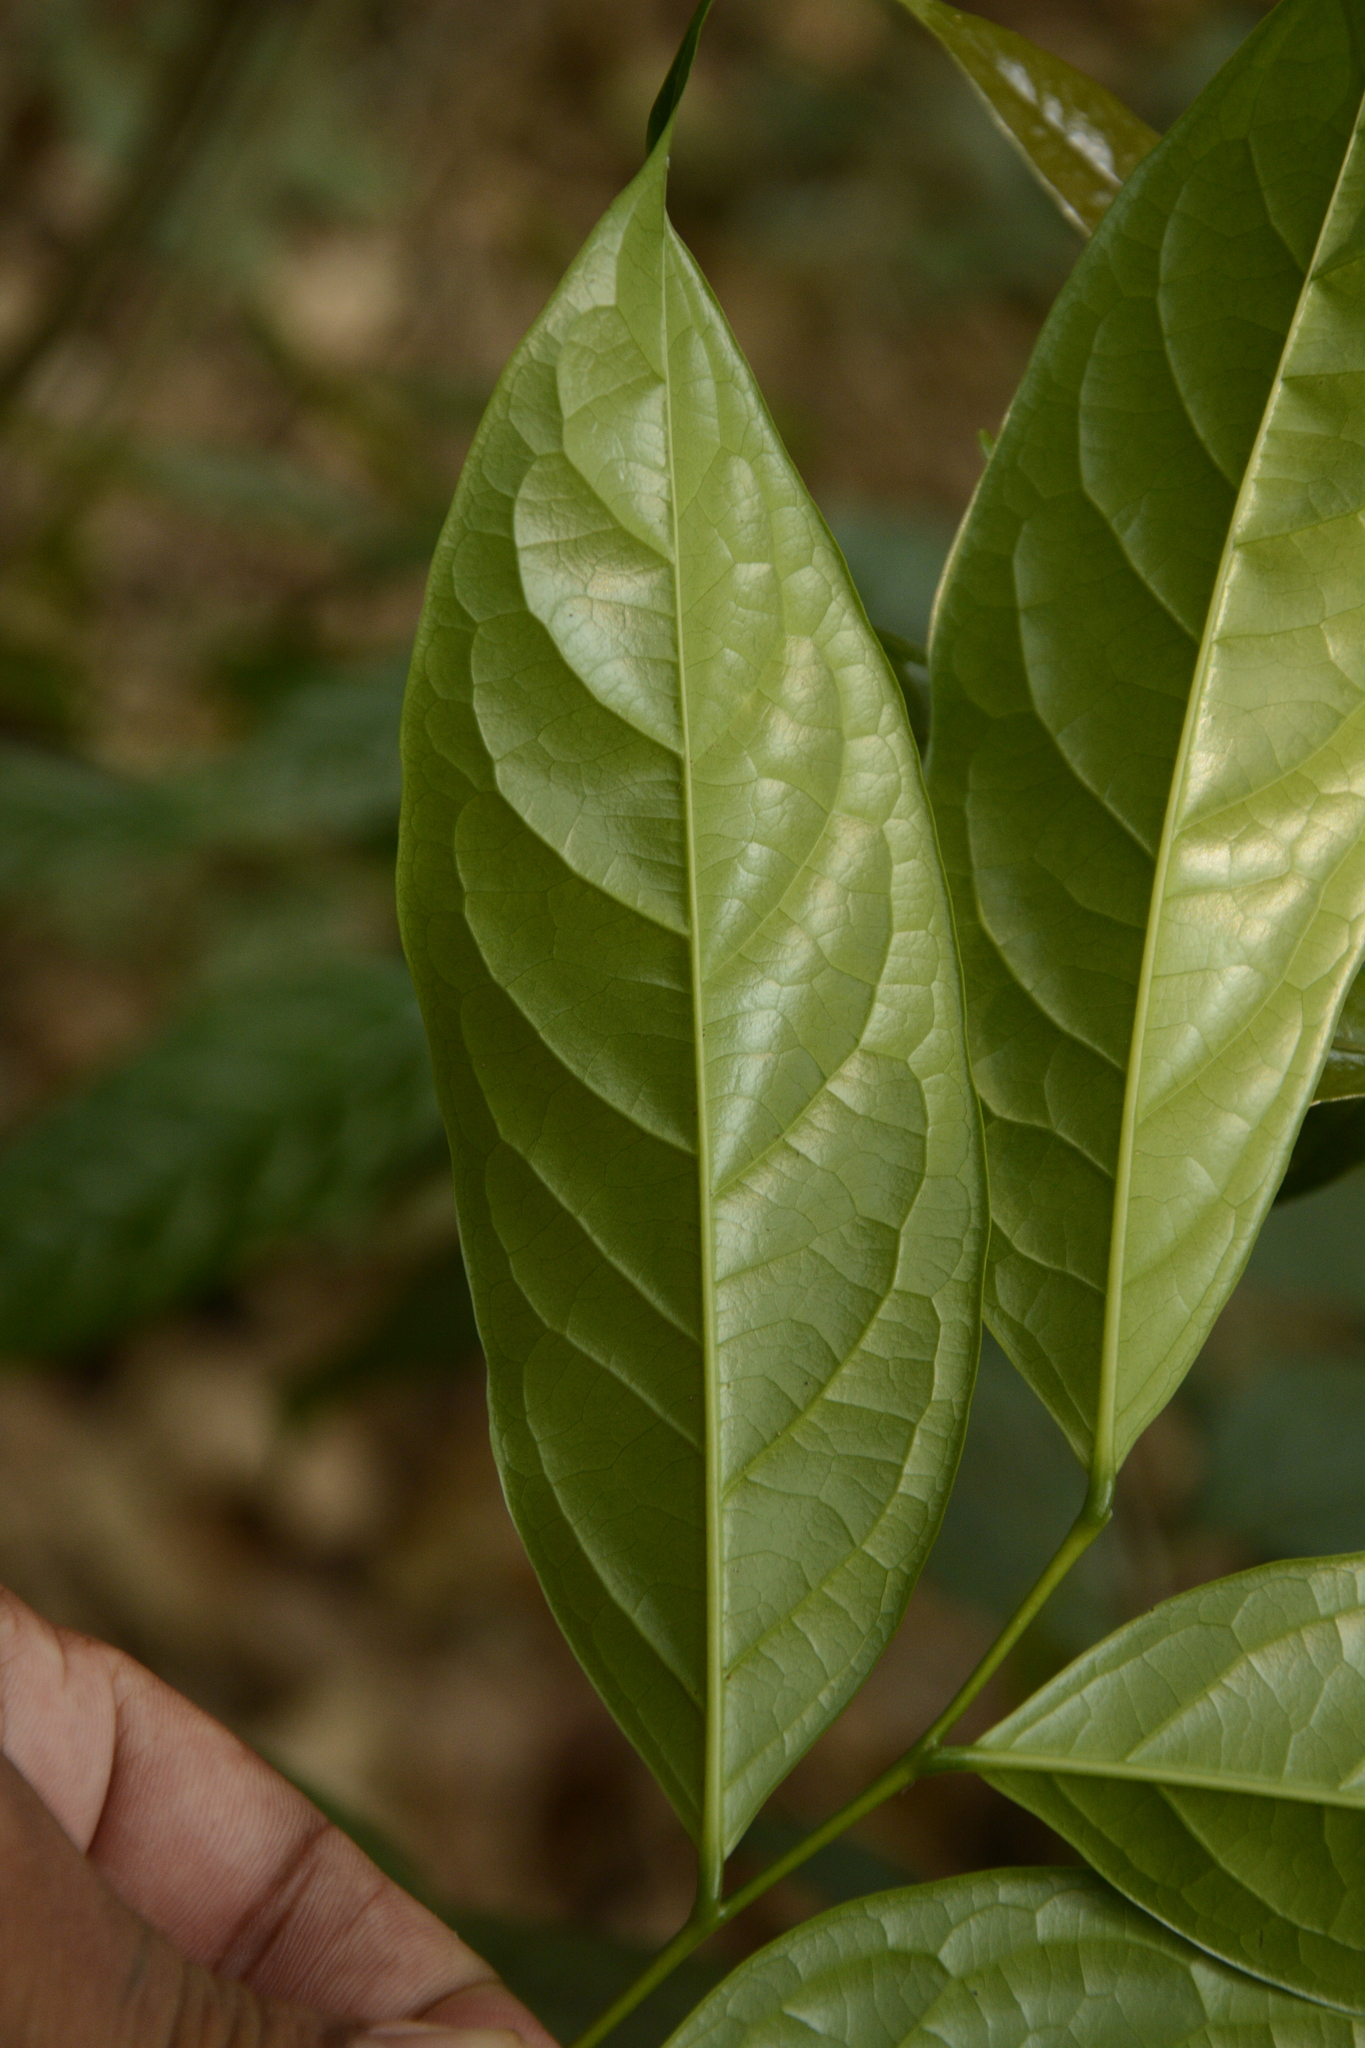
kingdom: Plantae
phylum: Tracheophyta
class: Magnoliopsida
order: Ericales
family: Ebenaceae
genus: Diospyros
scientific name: Diospyros sylvatica
